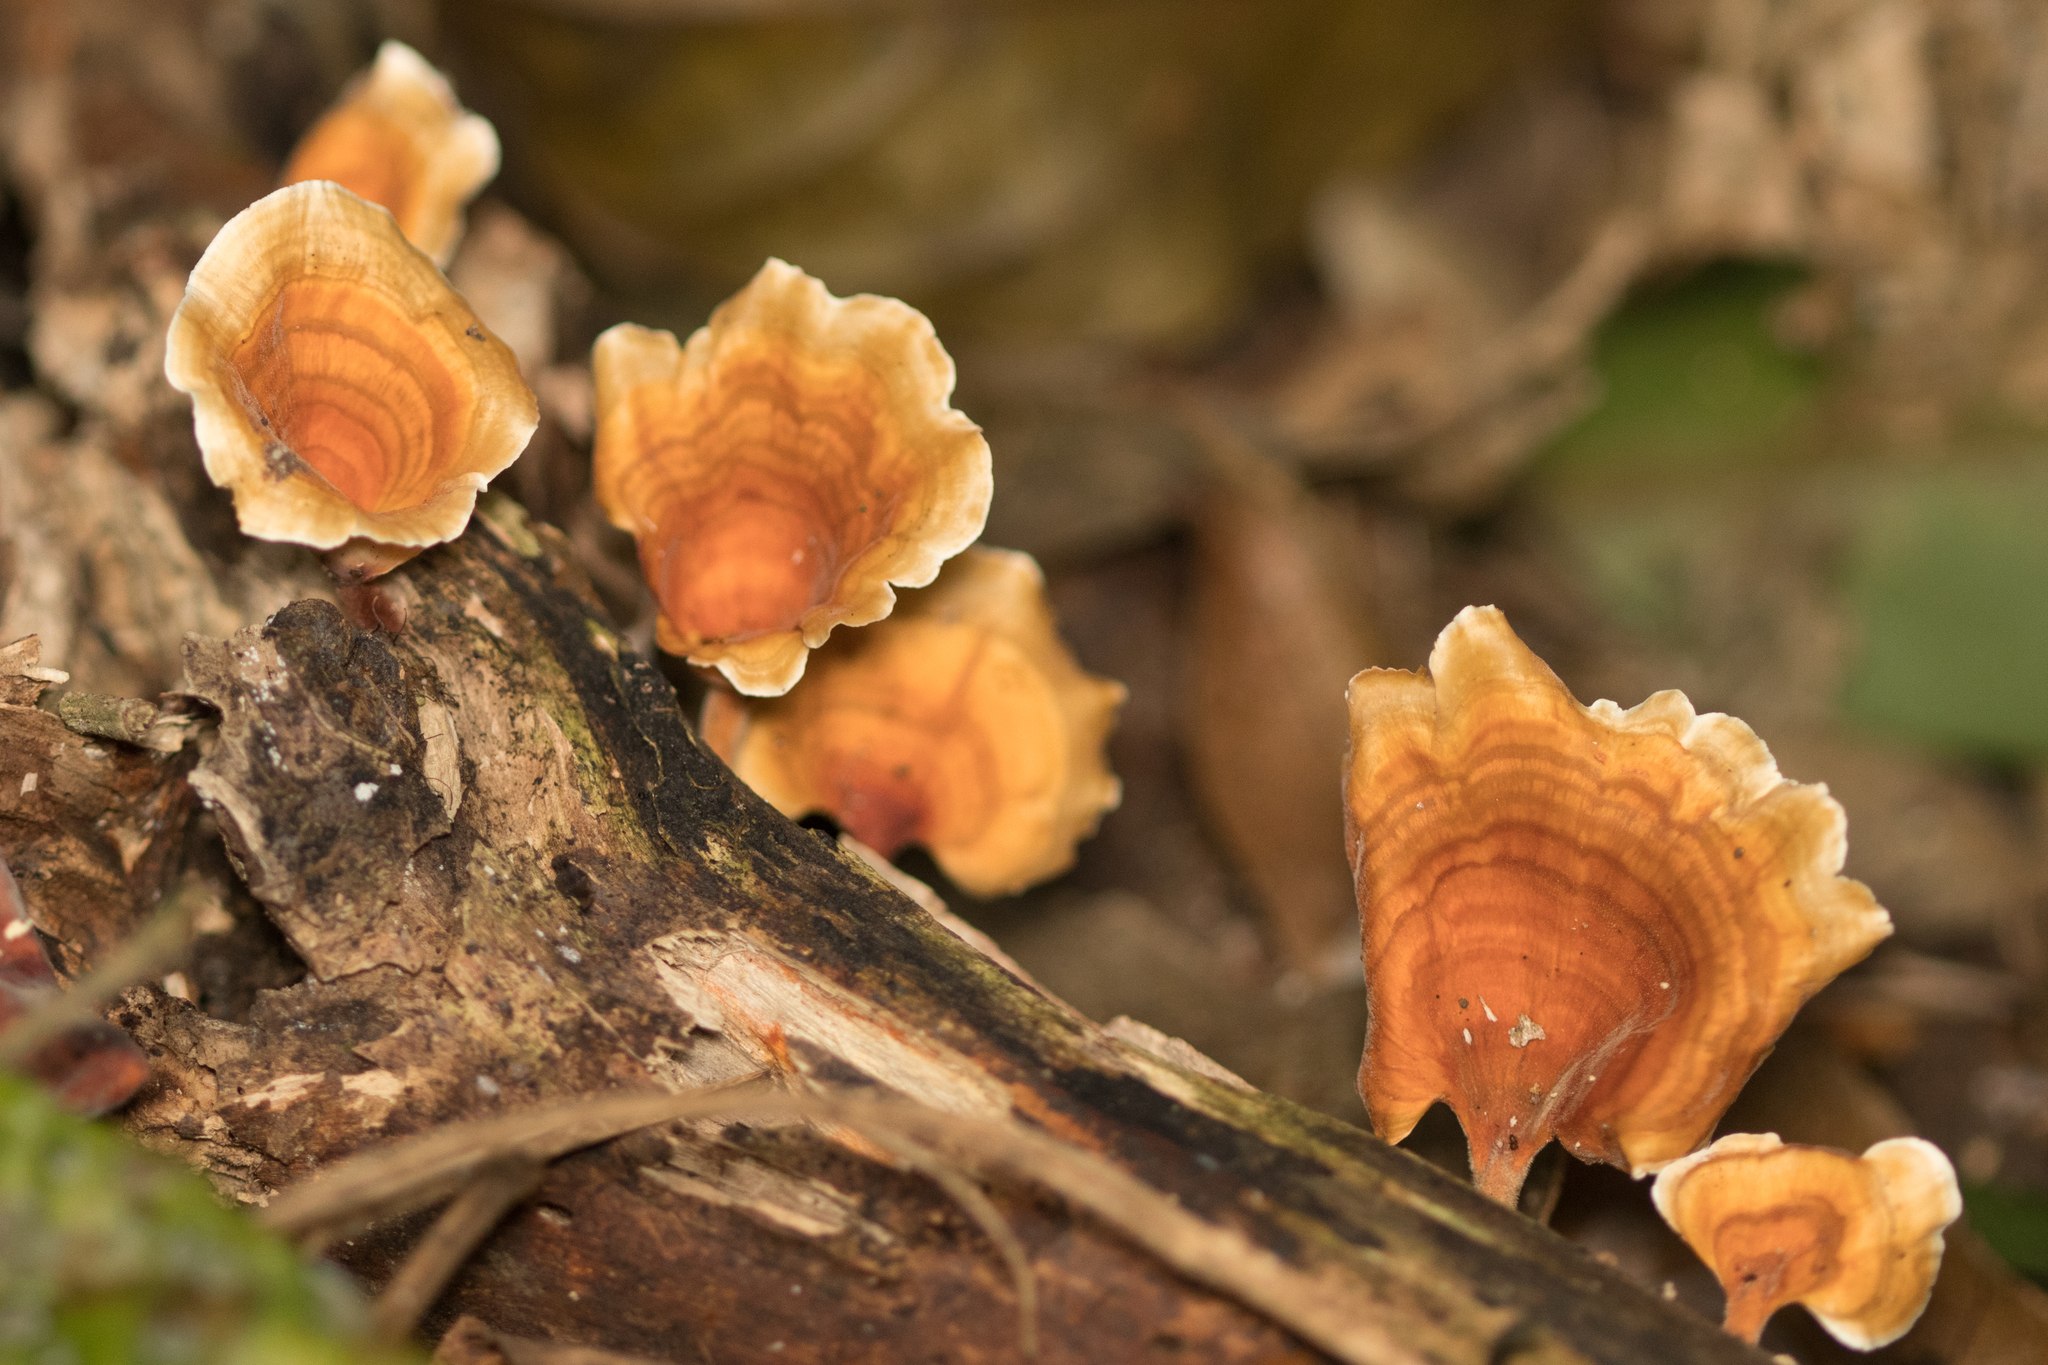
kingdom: Fungi
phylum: Basidiomycota
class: Agaricomycetes
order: Polyporales
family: Polyporaceae
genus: Microporus
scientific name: Microporus xanthopus
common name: Yellow-stemmed micropore
